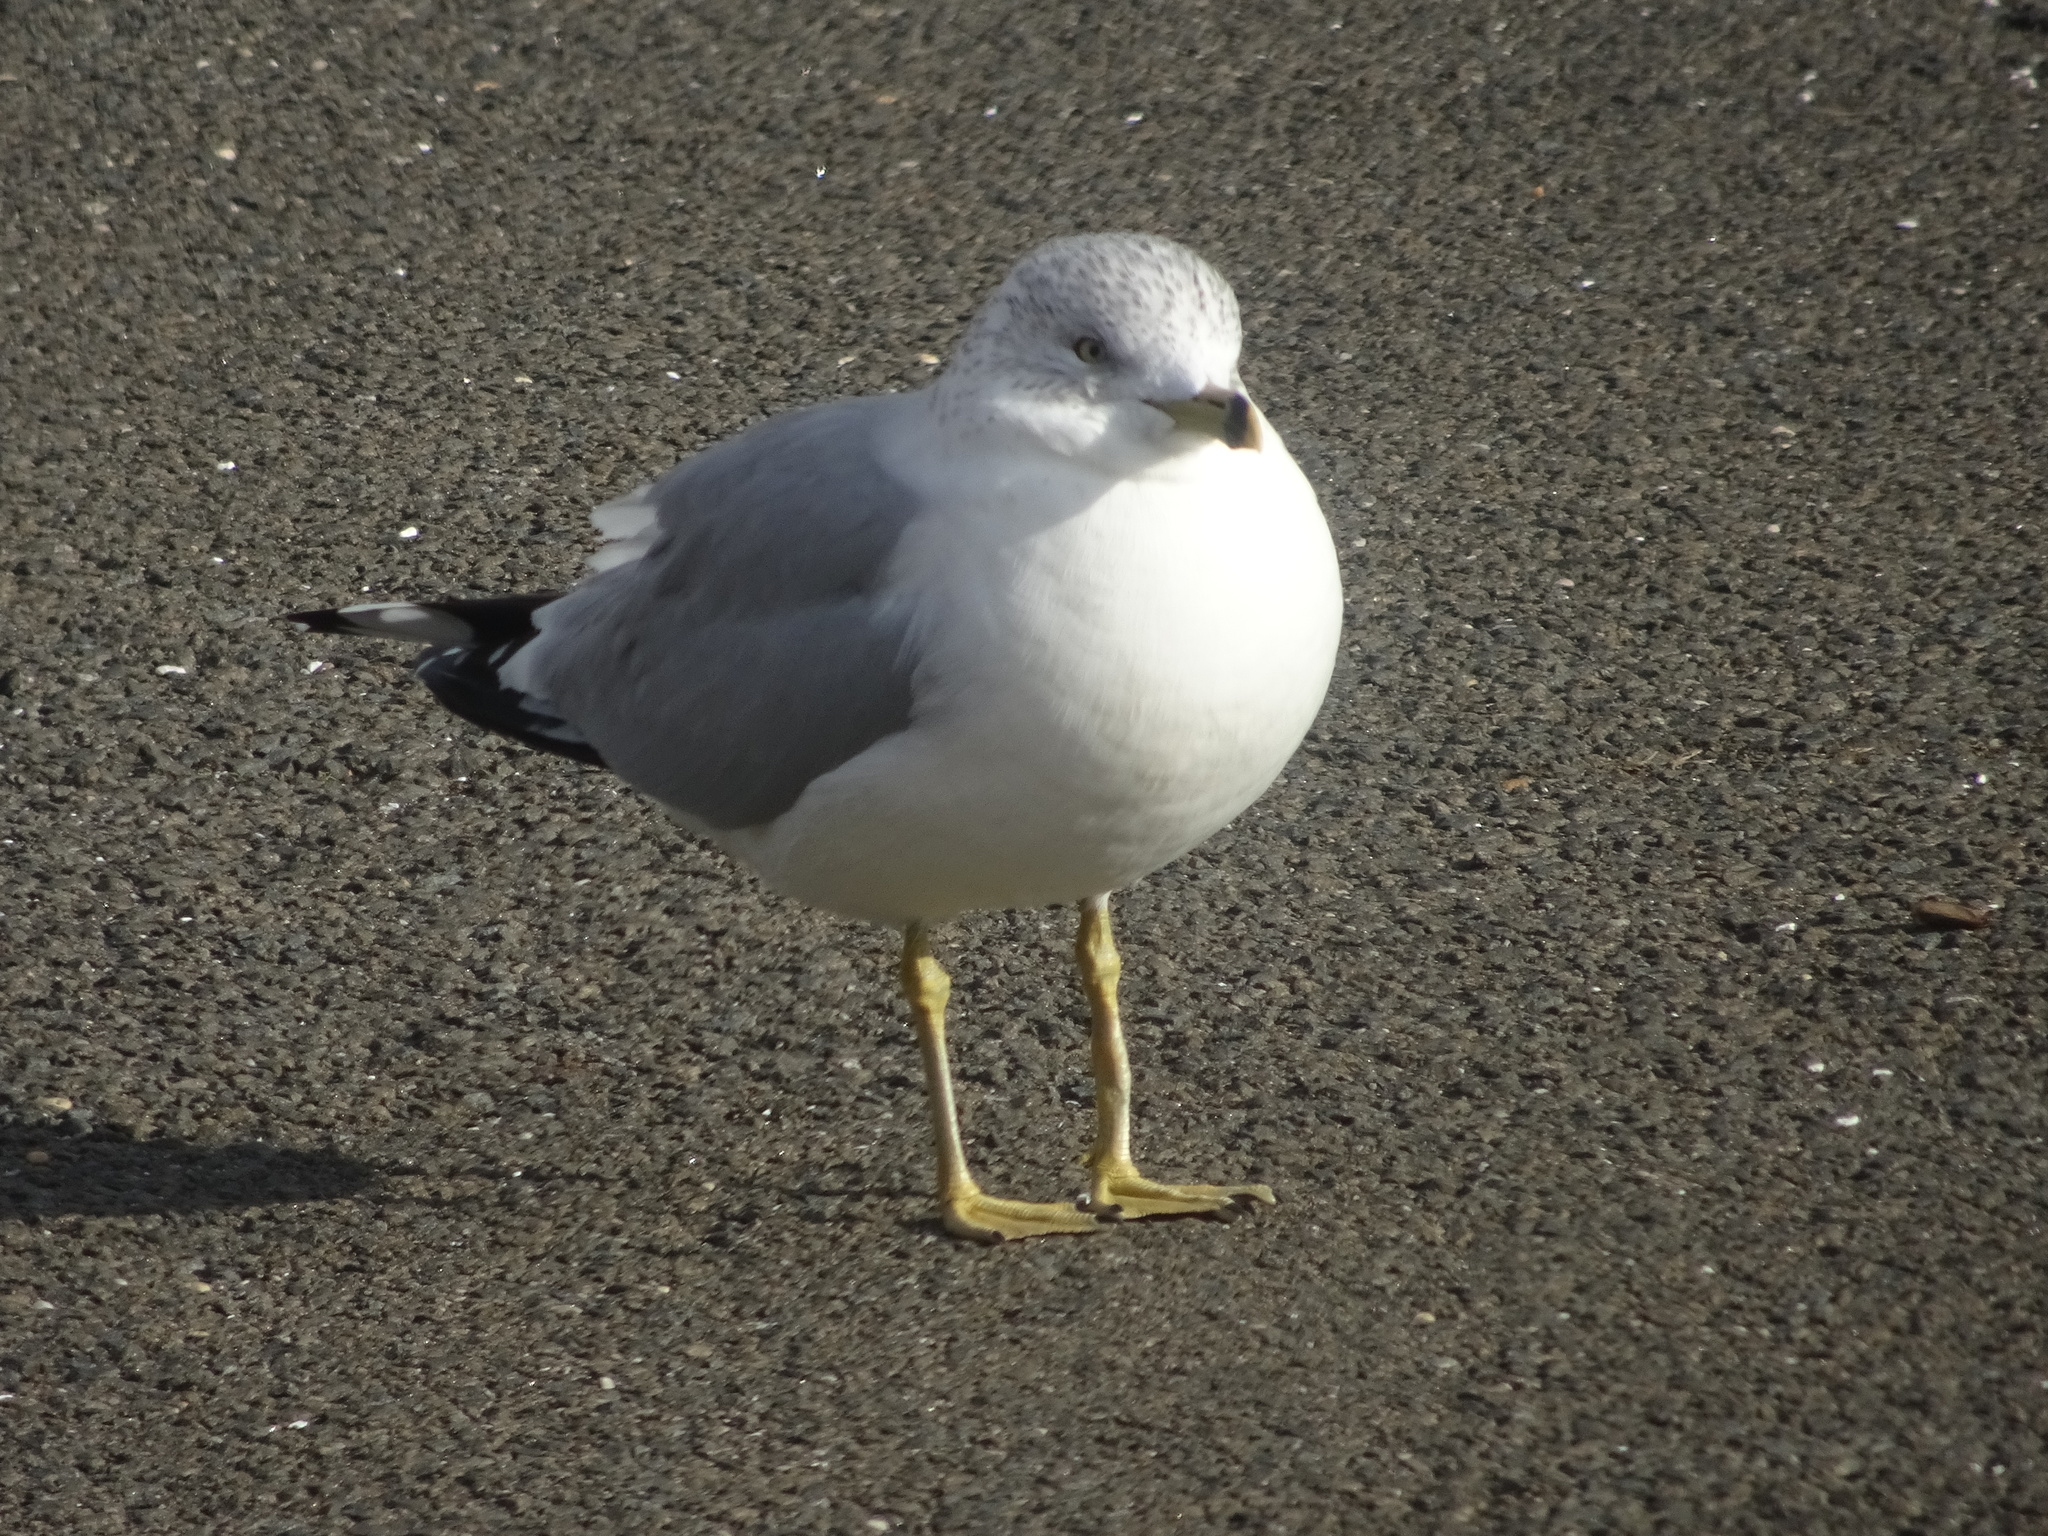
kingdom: Animalia
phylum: Chordata
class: Aves
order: Charadriiformes
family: Laridae
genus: Larus
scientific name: Larus delawarensis
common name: Ring-billed gull
